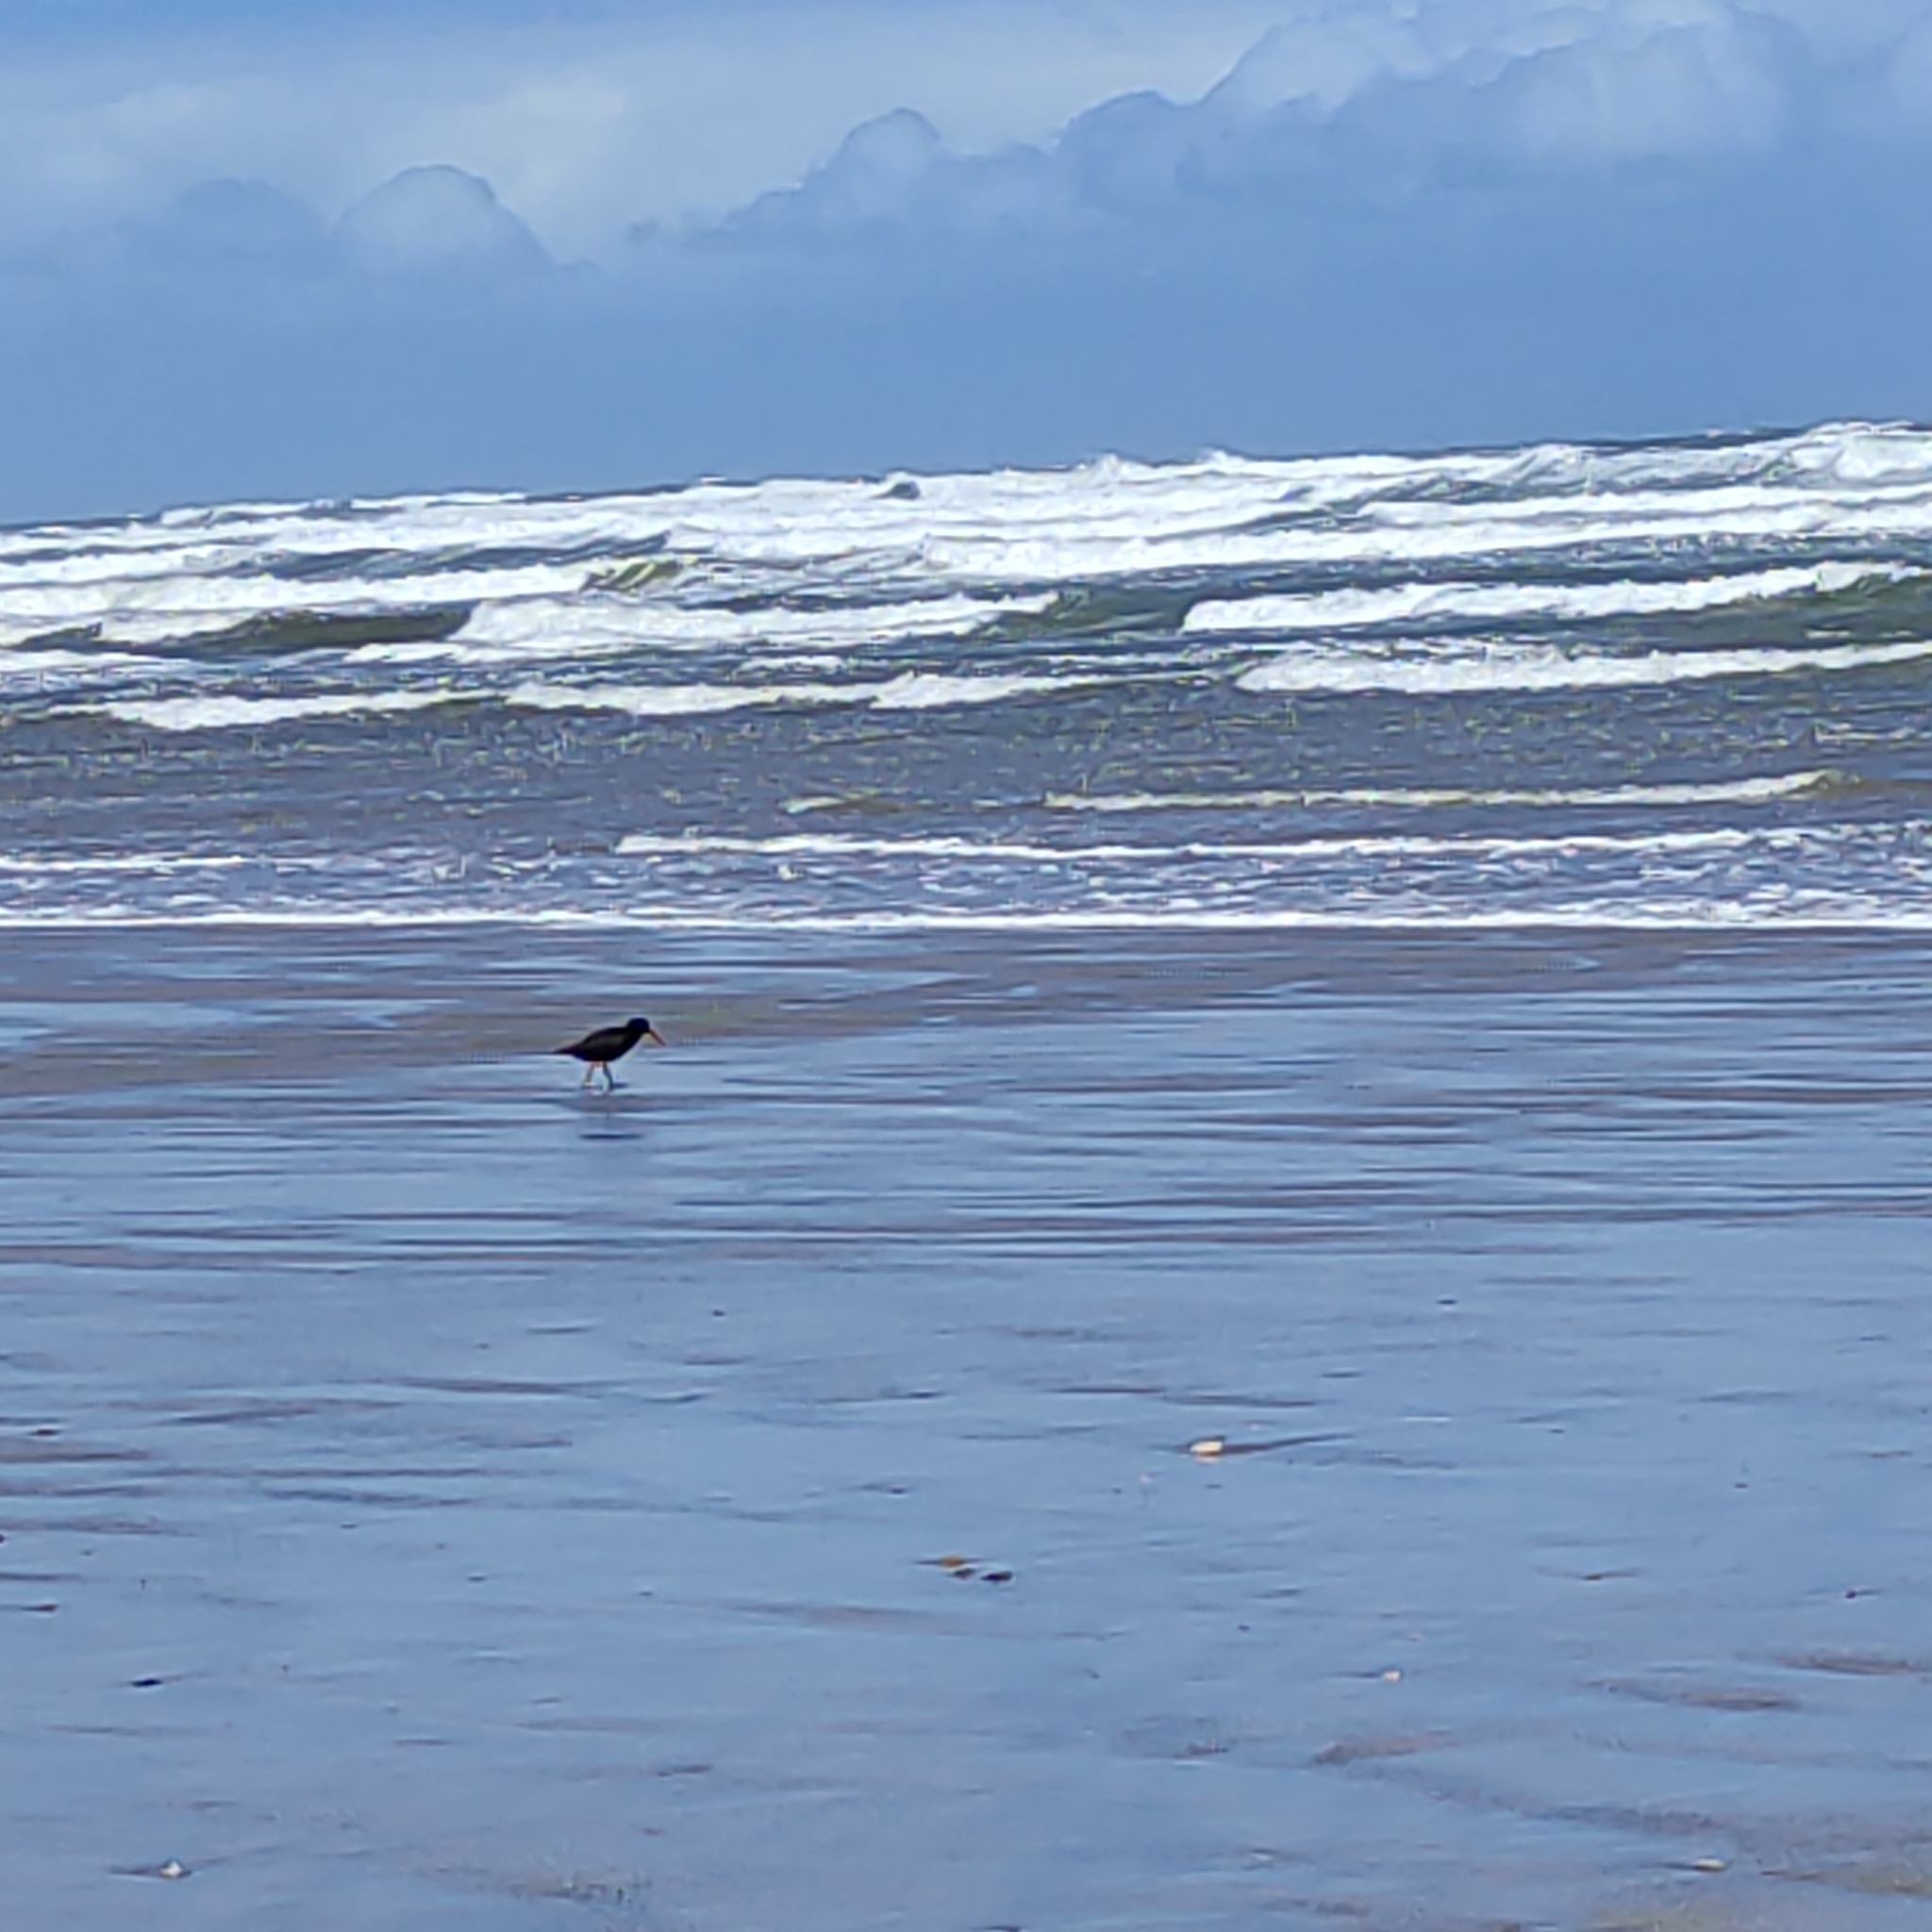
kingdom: Animalia
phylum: Chordata
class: Aves
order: Charadriiformes
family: Haematopodidae
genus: Haematopus
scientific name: Haematopus unicolor
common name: Variable oystercatcher
